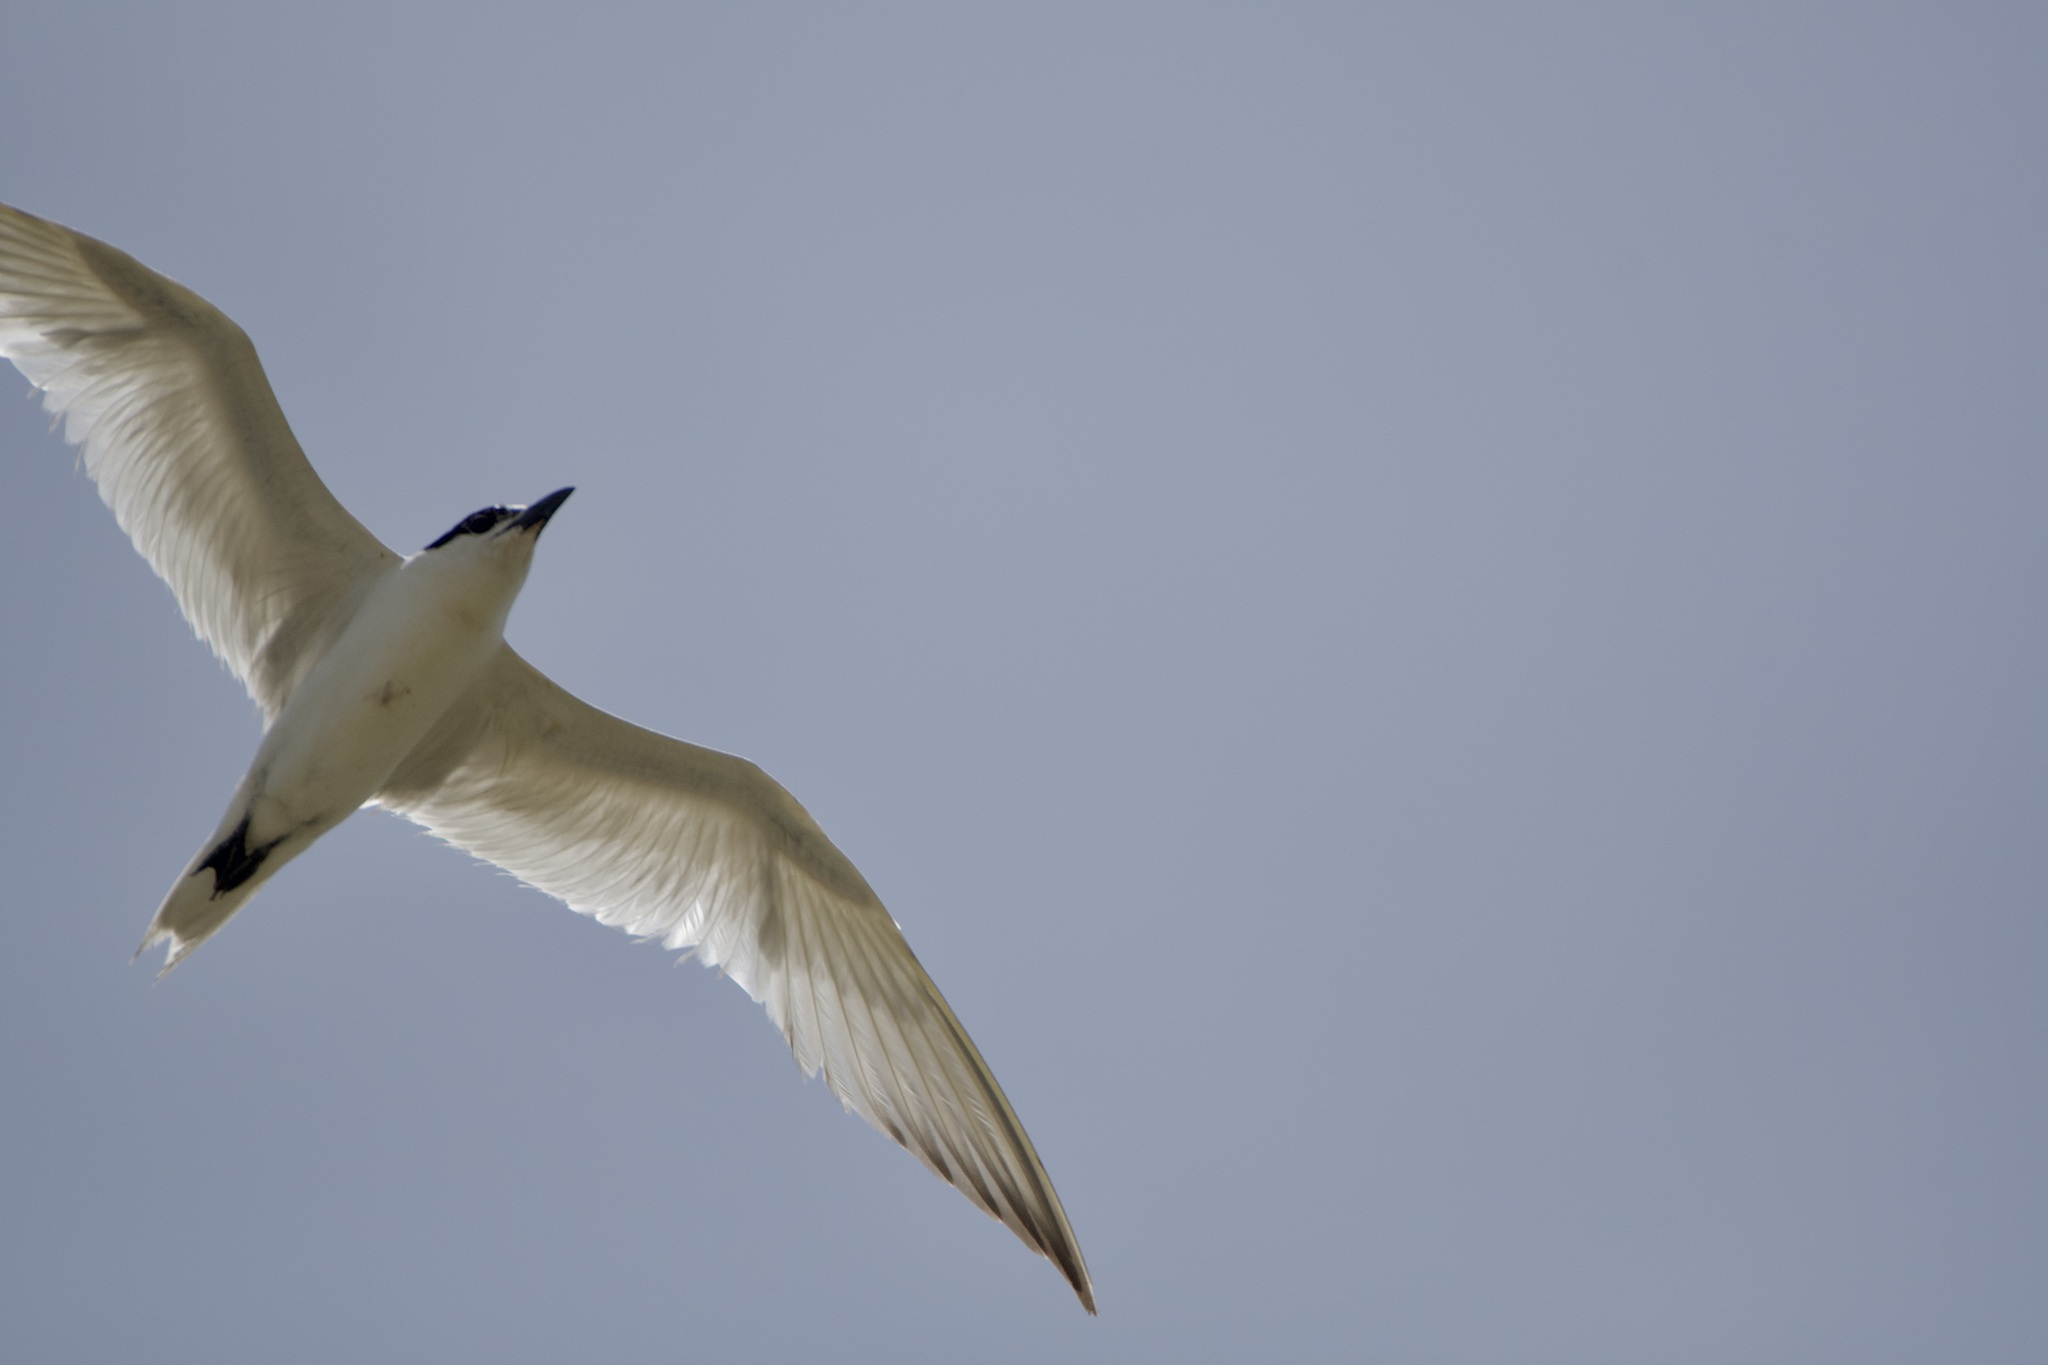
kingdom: Animalia
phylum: Chordata
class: Aves
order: Charadriiformes
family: Laridae
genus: Gelochelidon
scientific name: Gelochelidon nilotica
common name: Gull-billed tern
